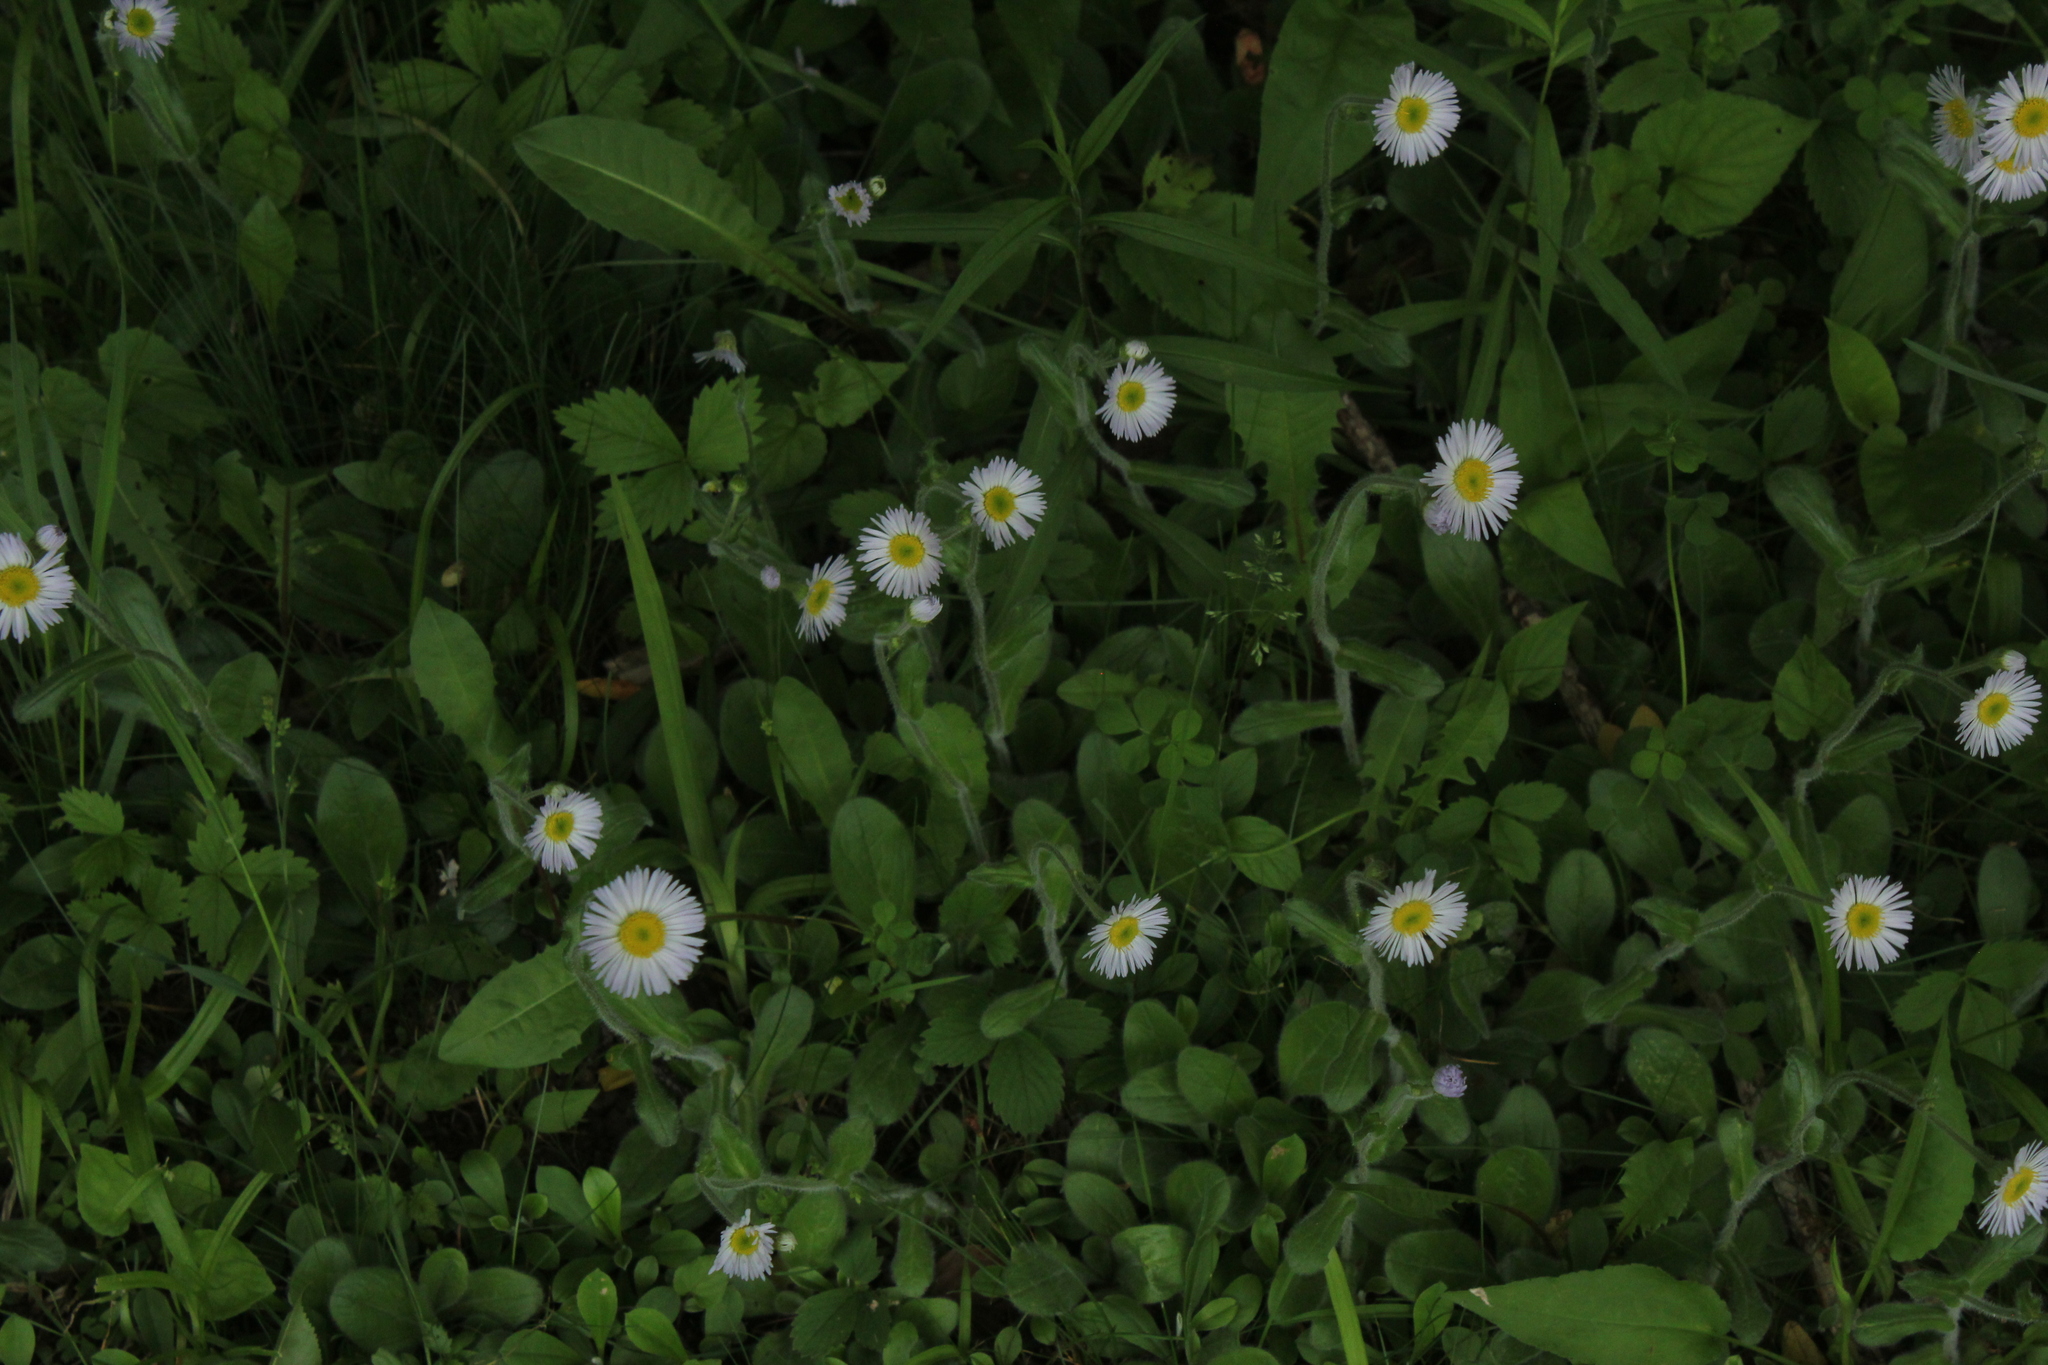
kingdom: Plantae
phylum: Tracheophyta
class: Magnoliopsida
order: Asterales
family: Asteraceae
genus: Erigeron
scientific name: Erigeron pulchellus
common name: Hairy fleabane
